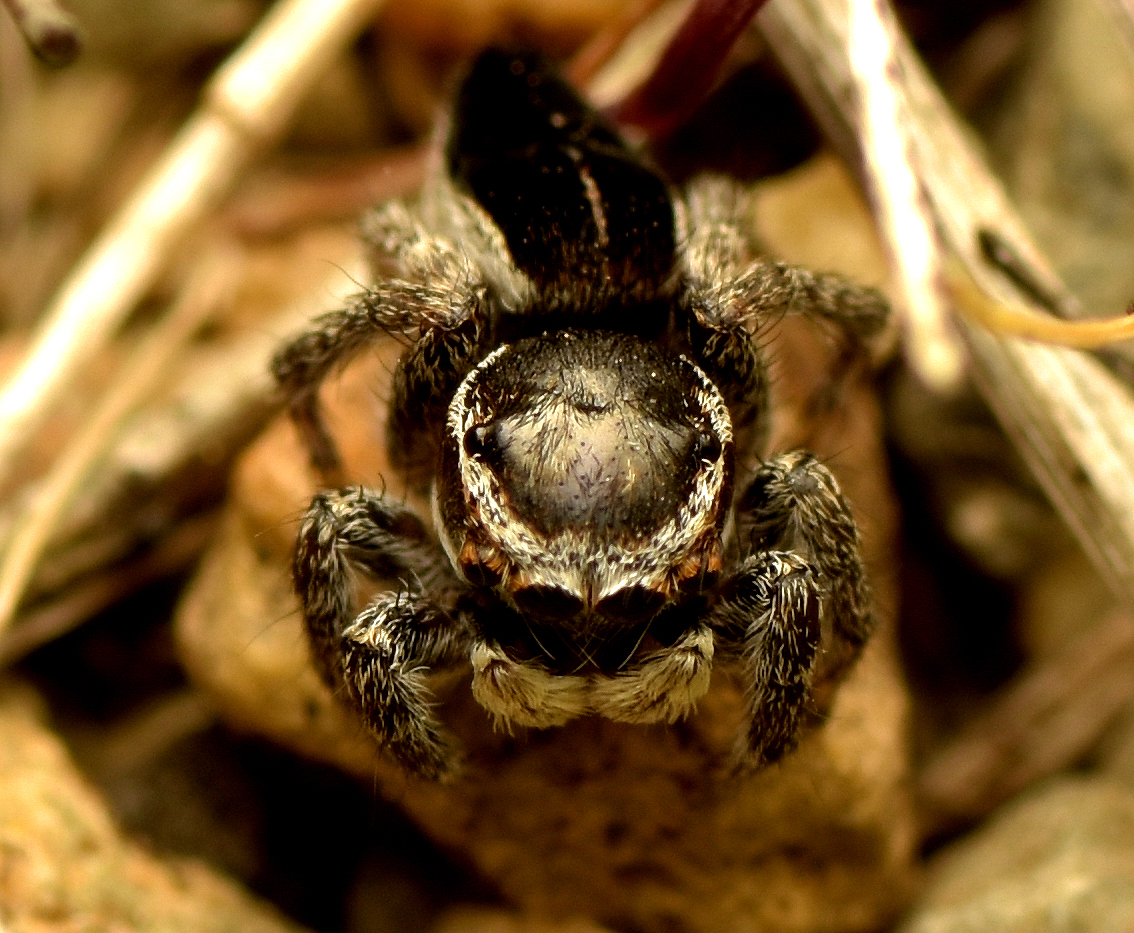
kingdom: Animalia
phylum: Arthropoda
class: Arachnida
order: Araneae
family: Salticidae
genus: Maratus
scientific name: Maratus proszynskii
